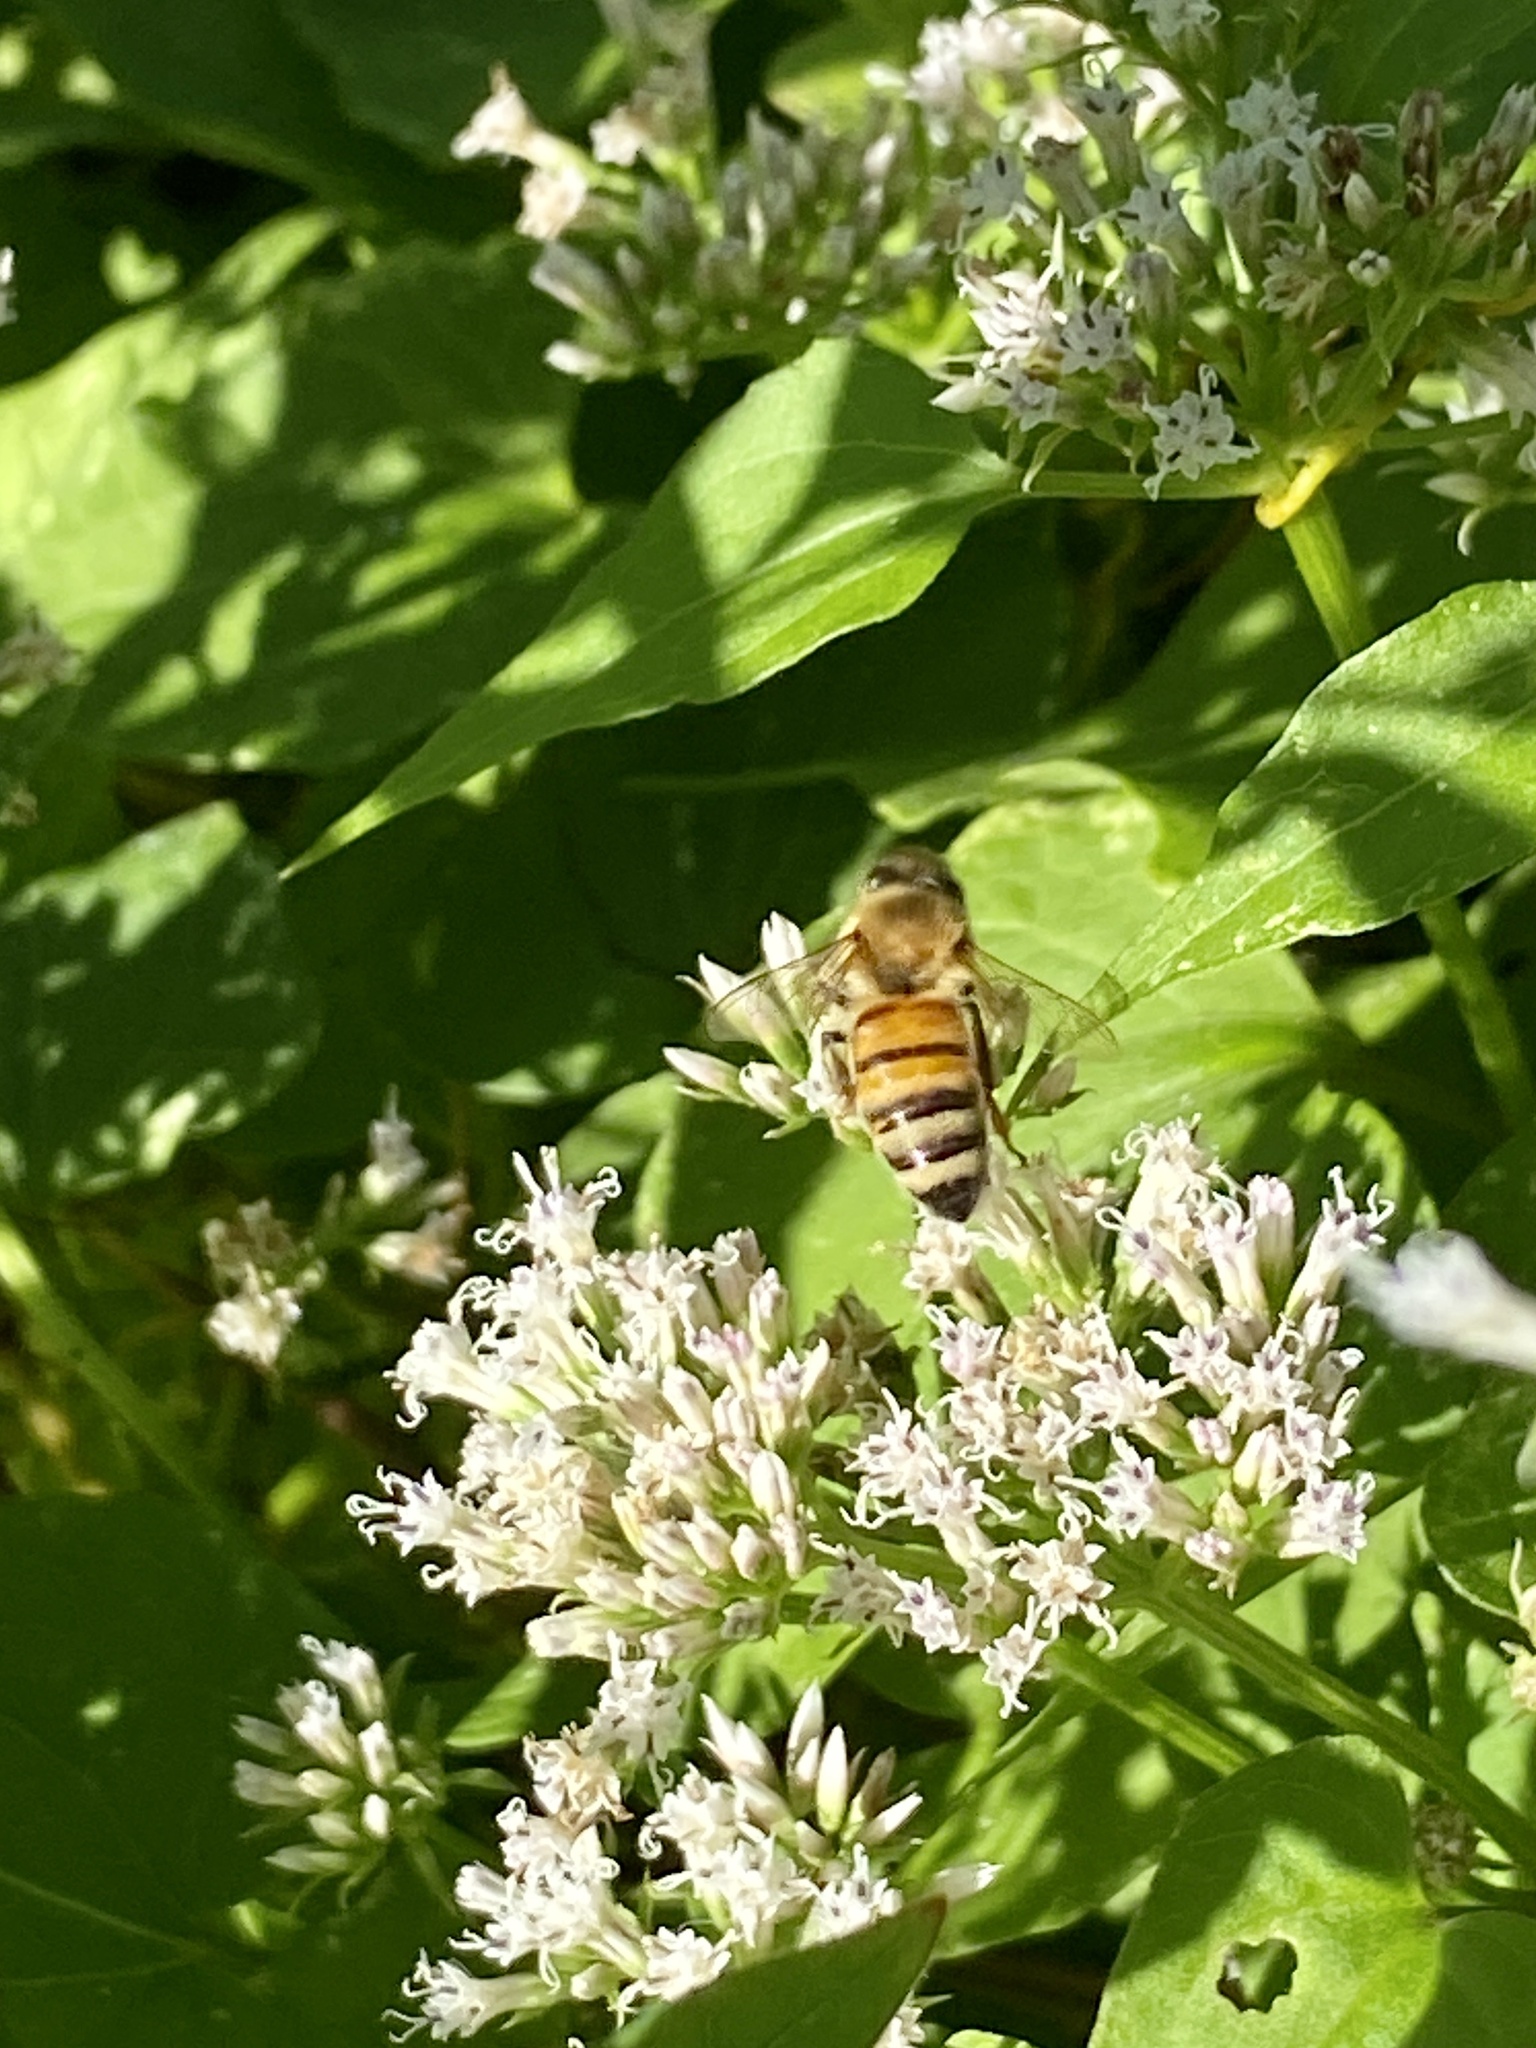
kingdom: Animalia
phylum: Arthropoda
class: Insecta
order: Hymenoptera
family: Apidae
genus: Apis
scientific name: Apis mellifera
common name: Honey bee
